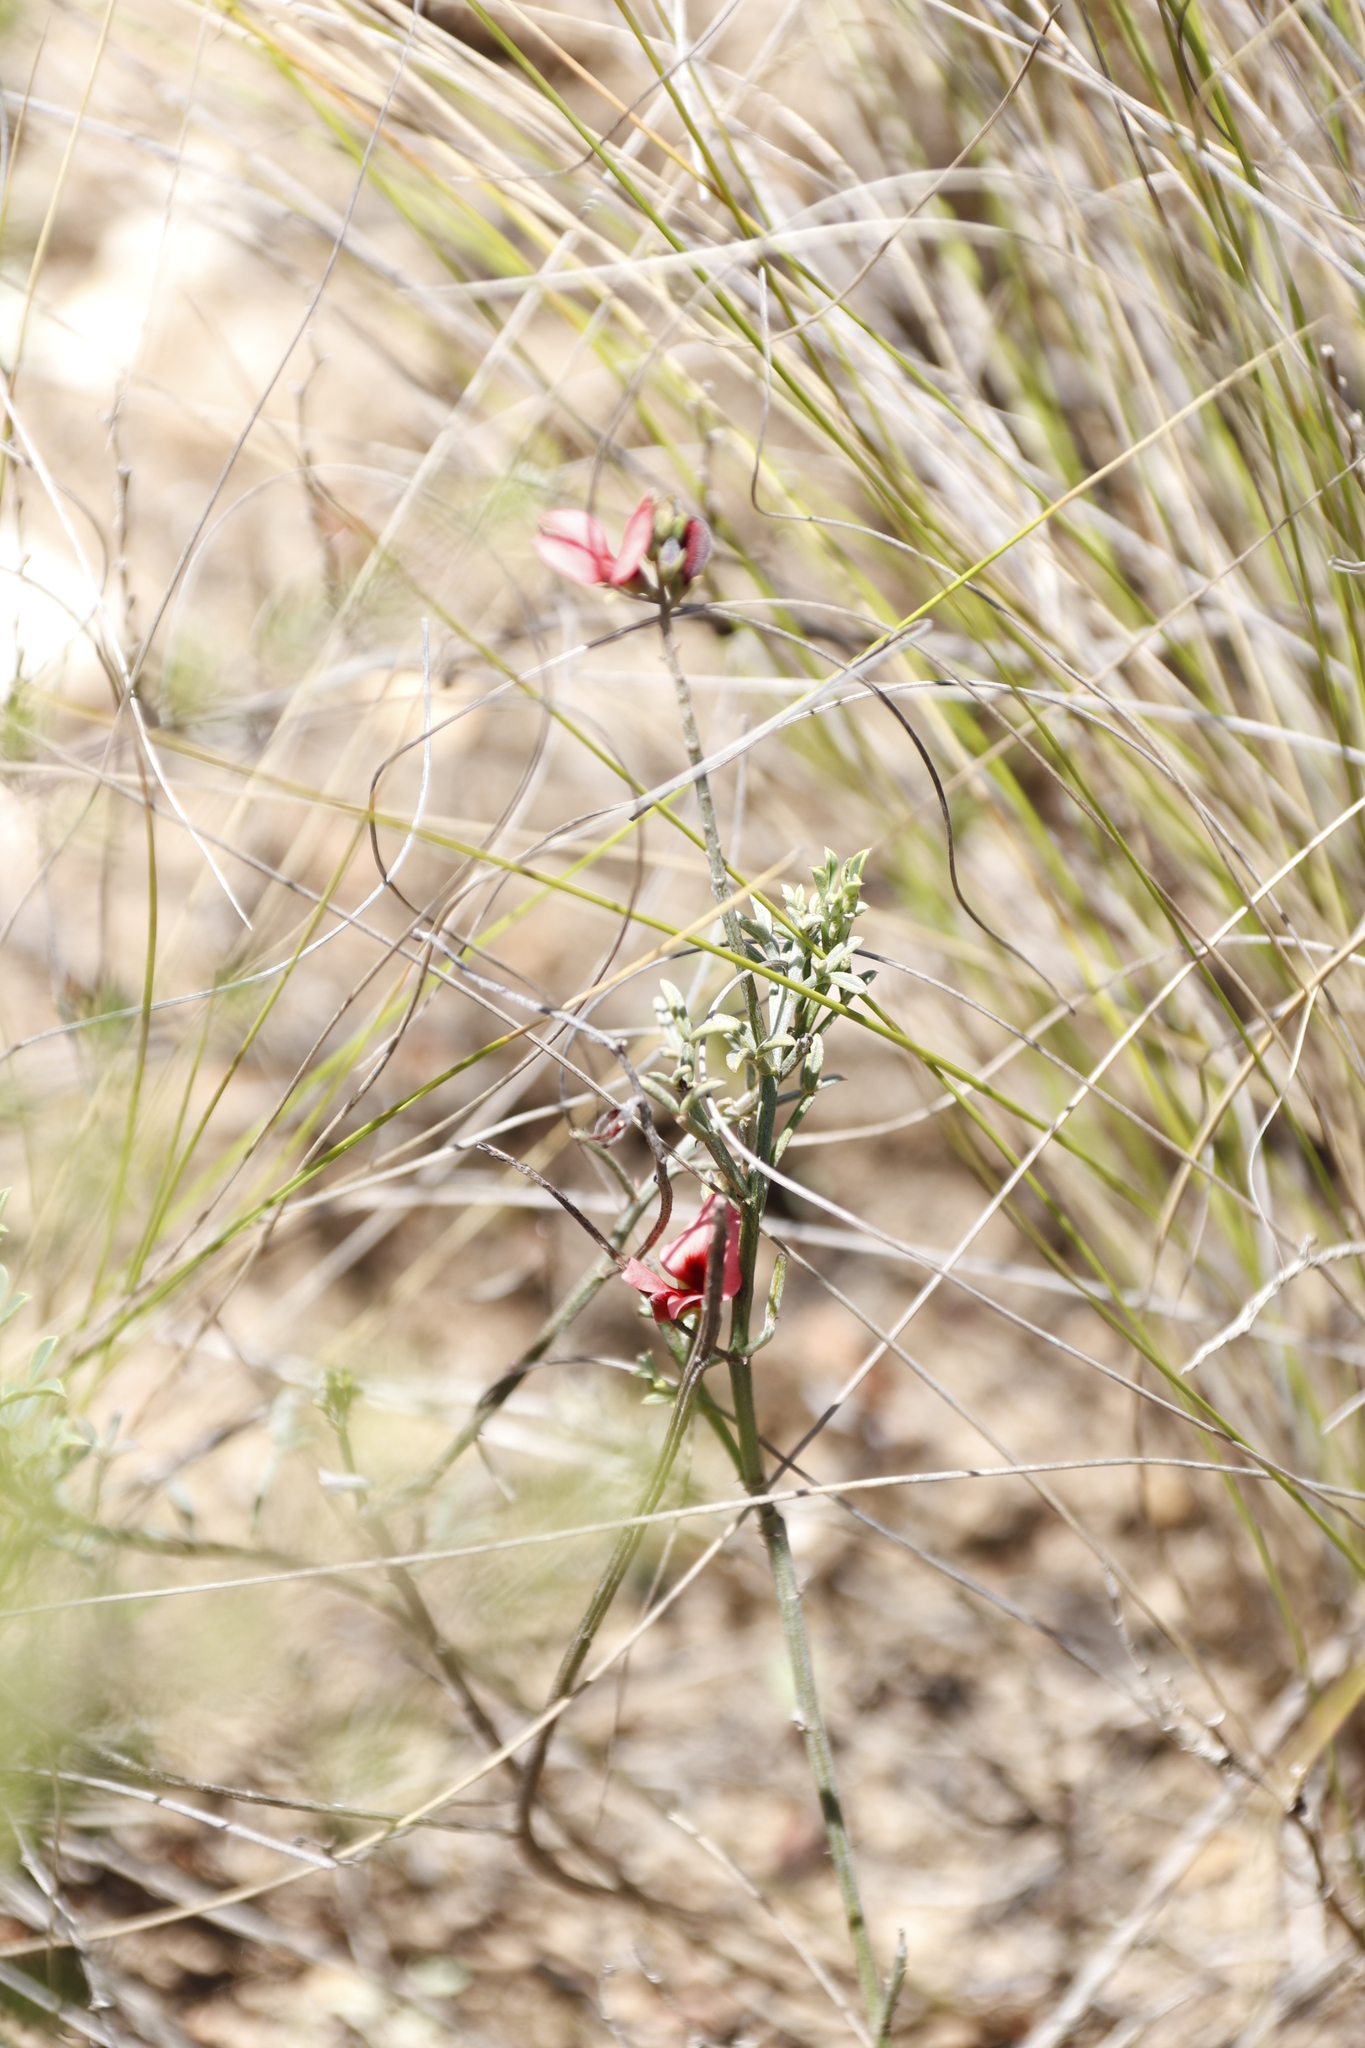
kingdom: Plantae
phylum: Tracheophyta
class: Magnoliopsida
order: Fabales
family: Fabaceae
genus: Indigofera
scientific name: Indigofera heterophylla
